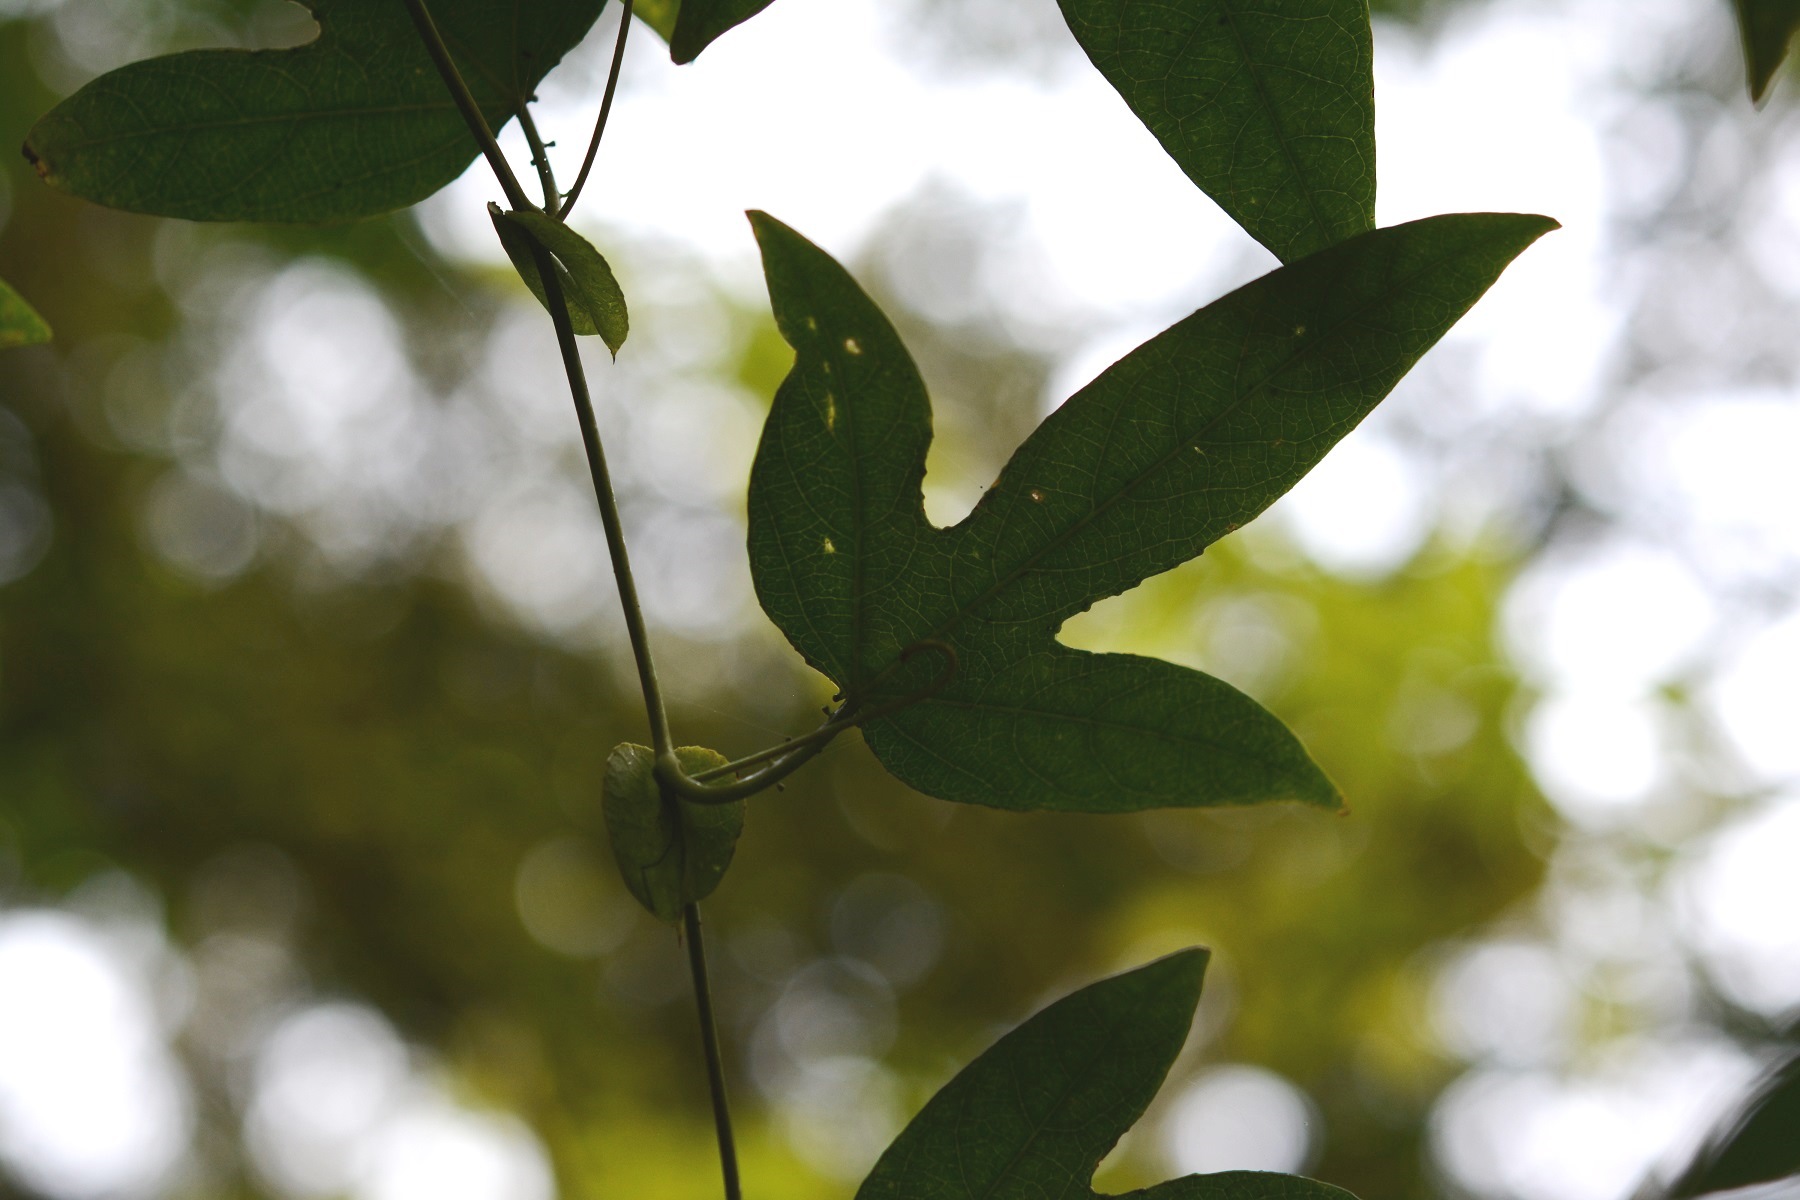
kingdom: Plantae
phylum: Tracheophyta
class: Magnoliopsida
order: Malpighiales
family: Passifloraceae
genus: Passiflora
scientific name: Passiflora choconiana
